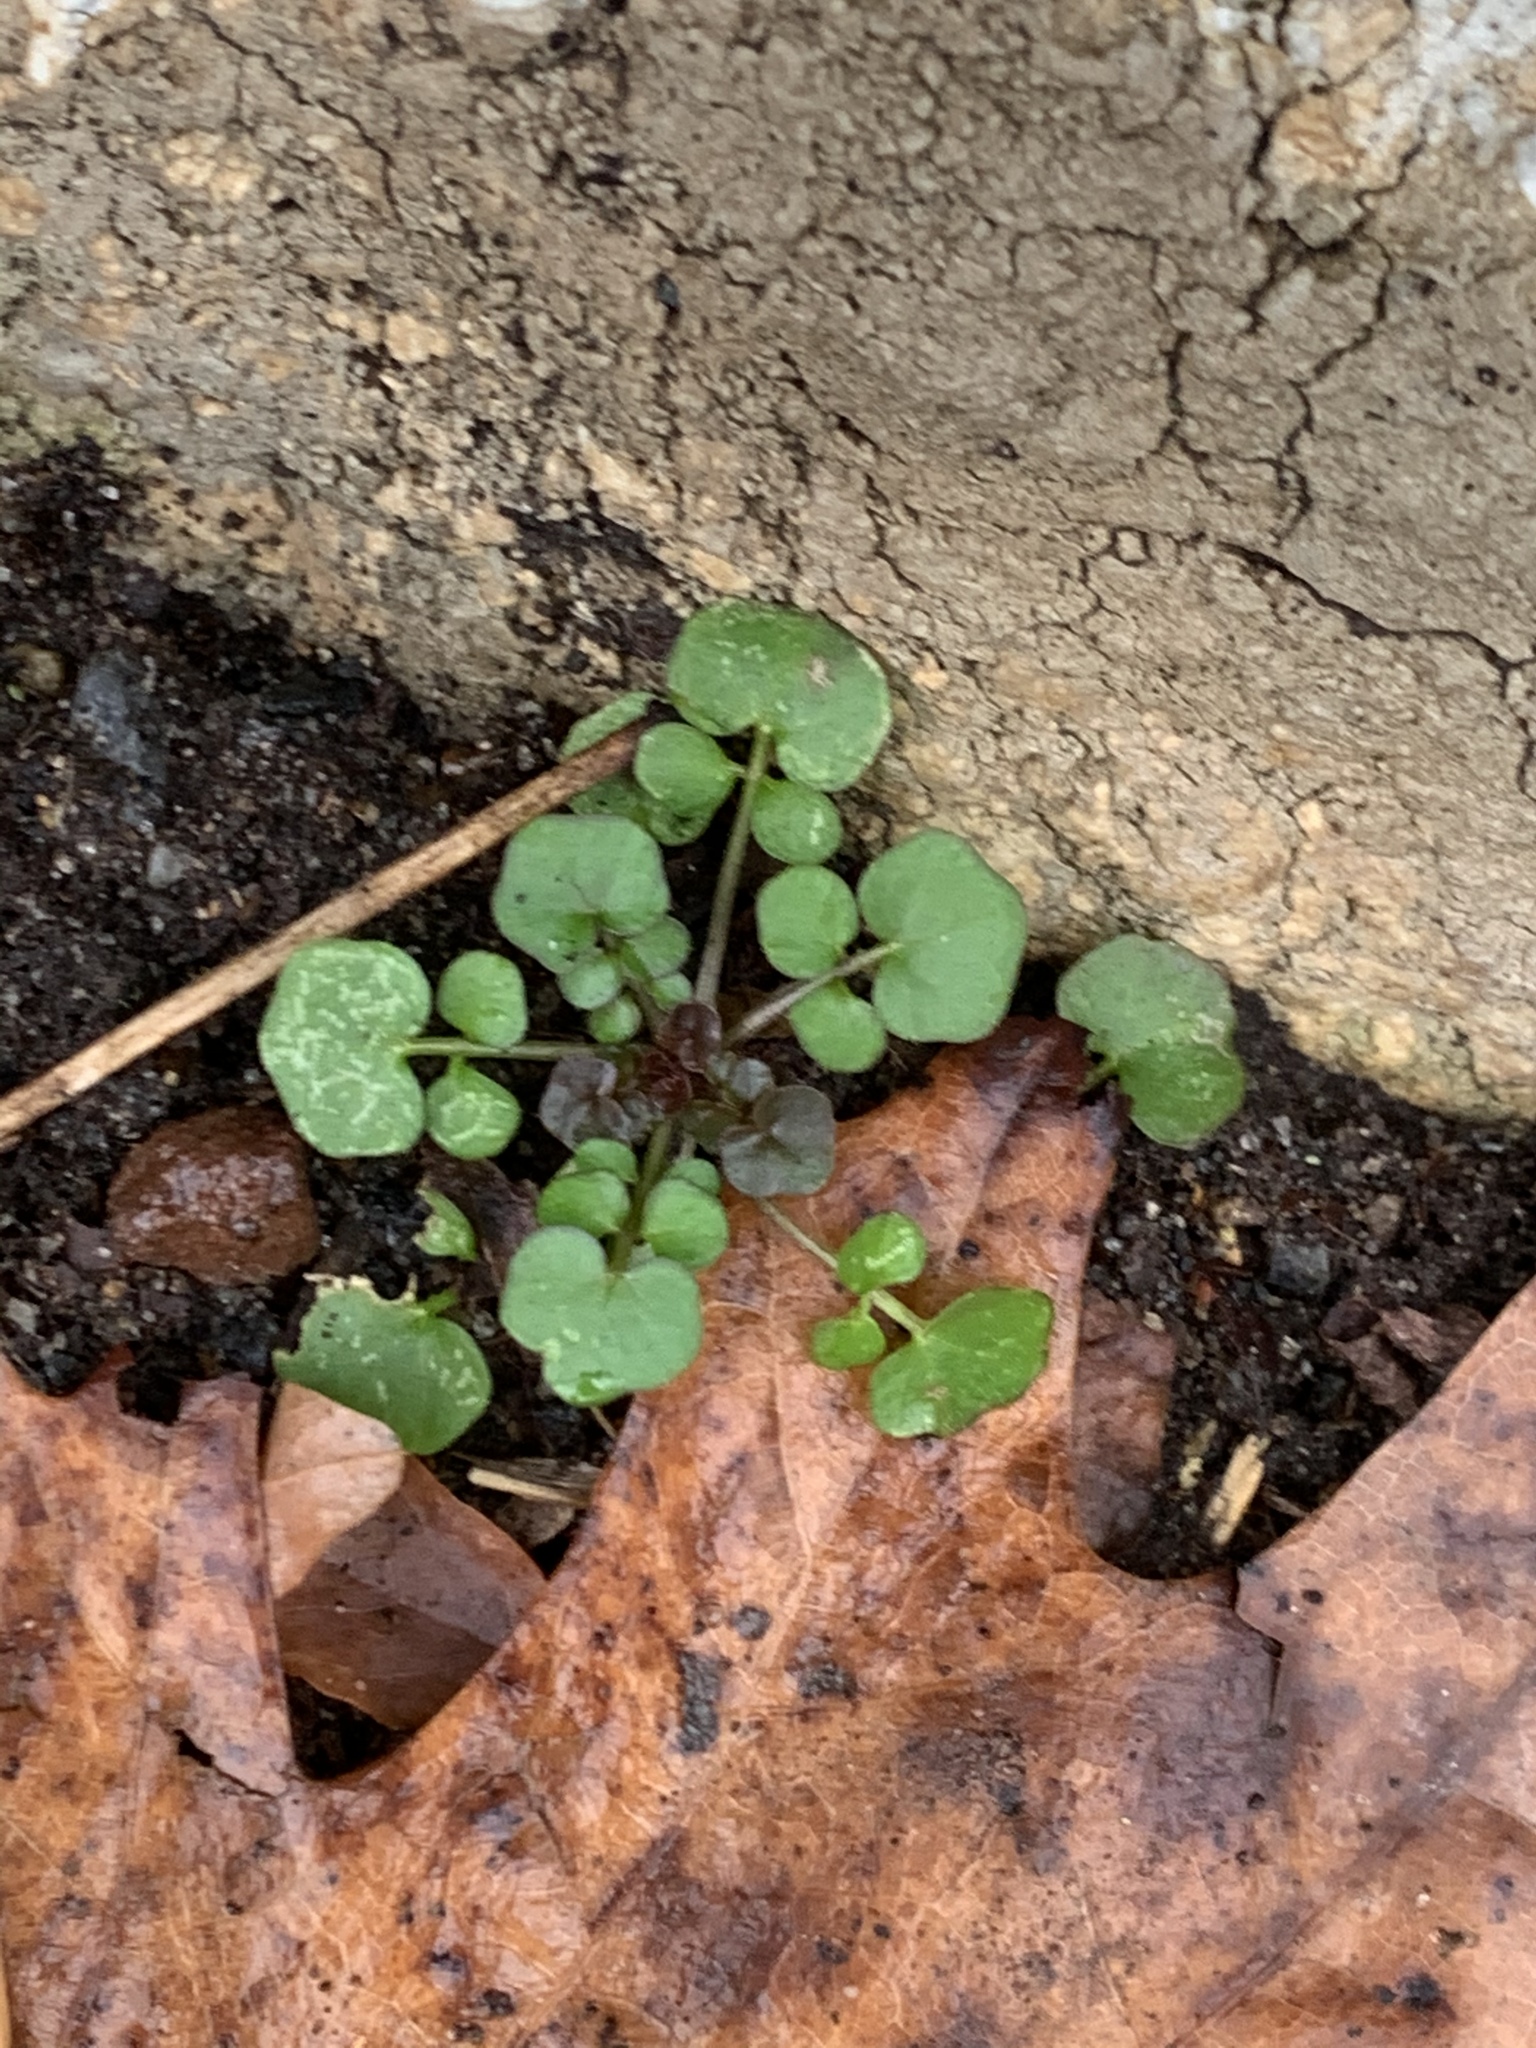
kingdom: Plantae
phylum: Tracheophyta
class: Magnoliopsida
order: Brassicales
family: Brassicaceae
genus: Cardamine
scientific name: Cardamine hirsuta
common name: Hairy bittercress
